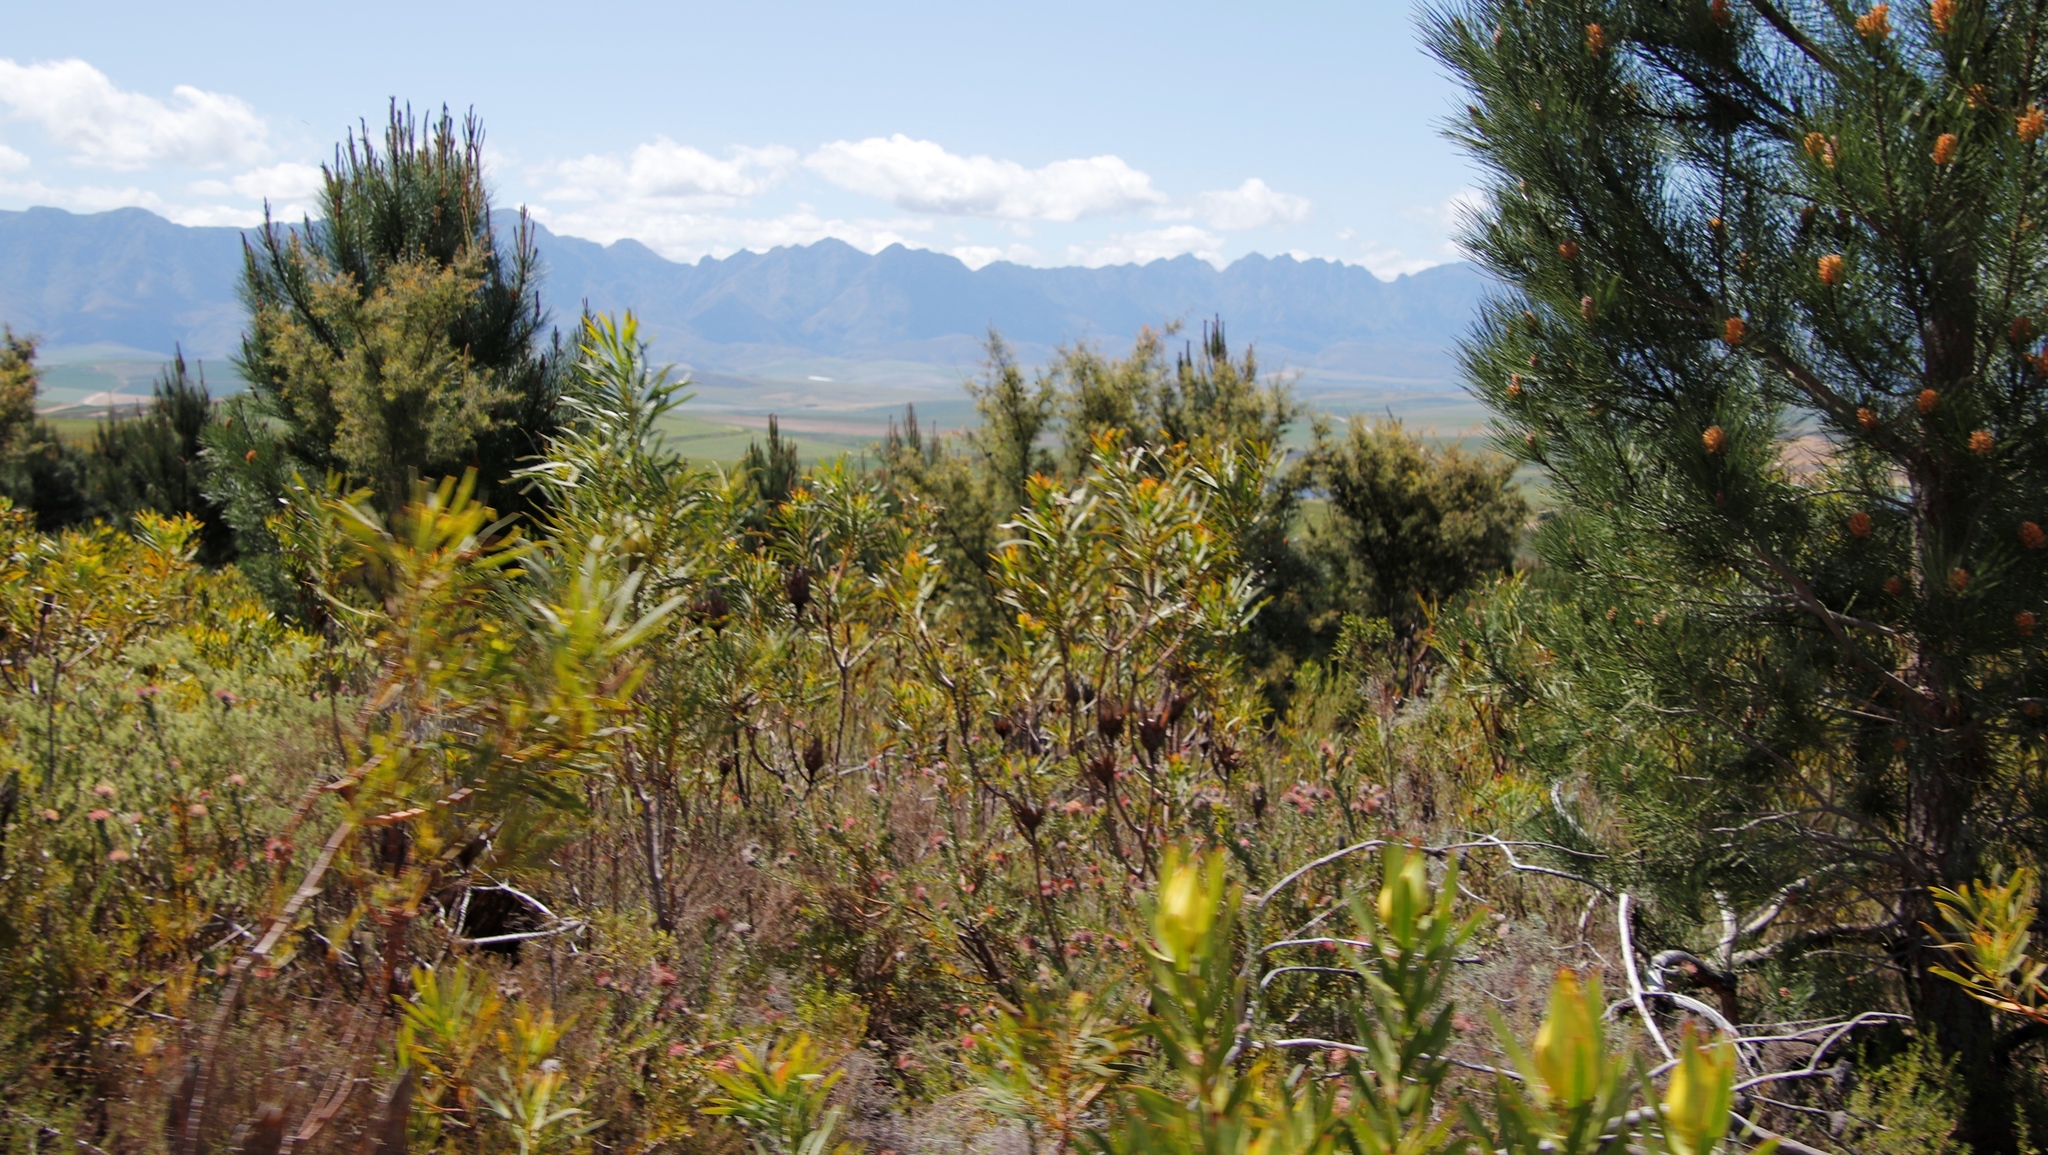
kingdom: Plantae
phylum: Tracheophyta
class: Magnoliopsida
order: Proteales
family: Proteaceae
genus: Protea
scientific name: Protea repens
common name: Sugarbush
